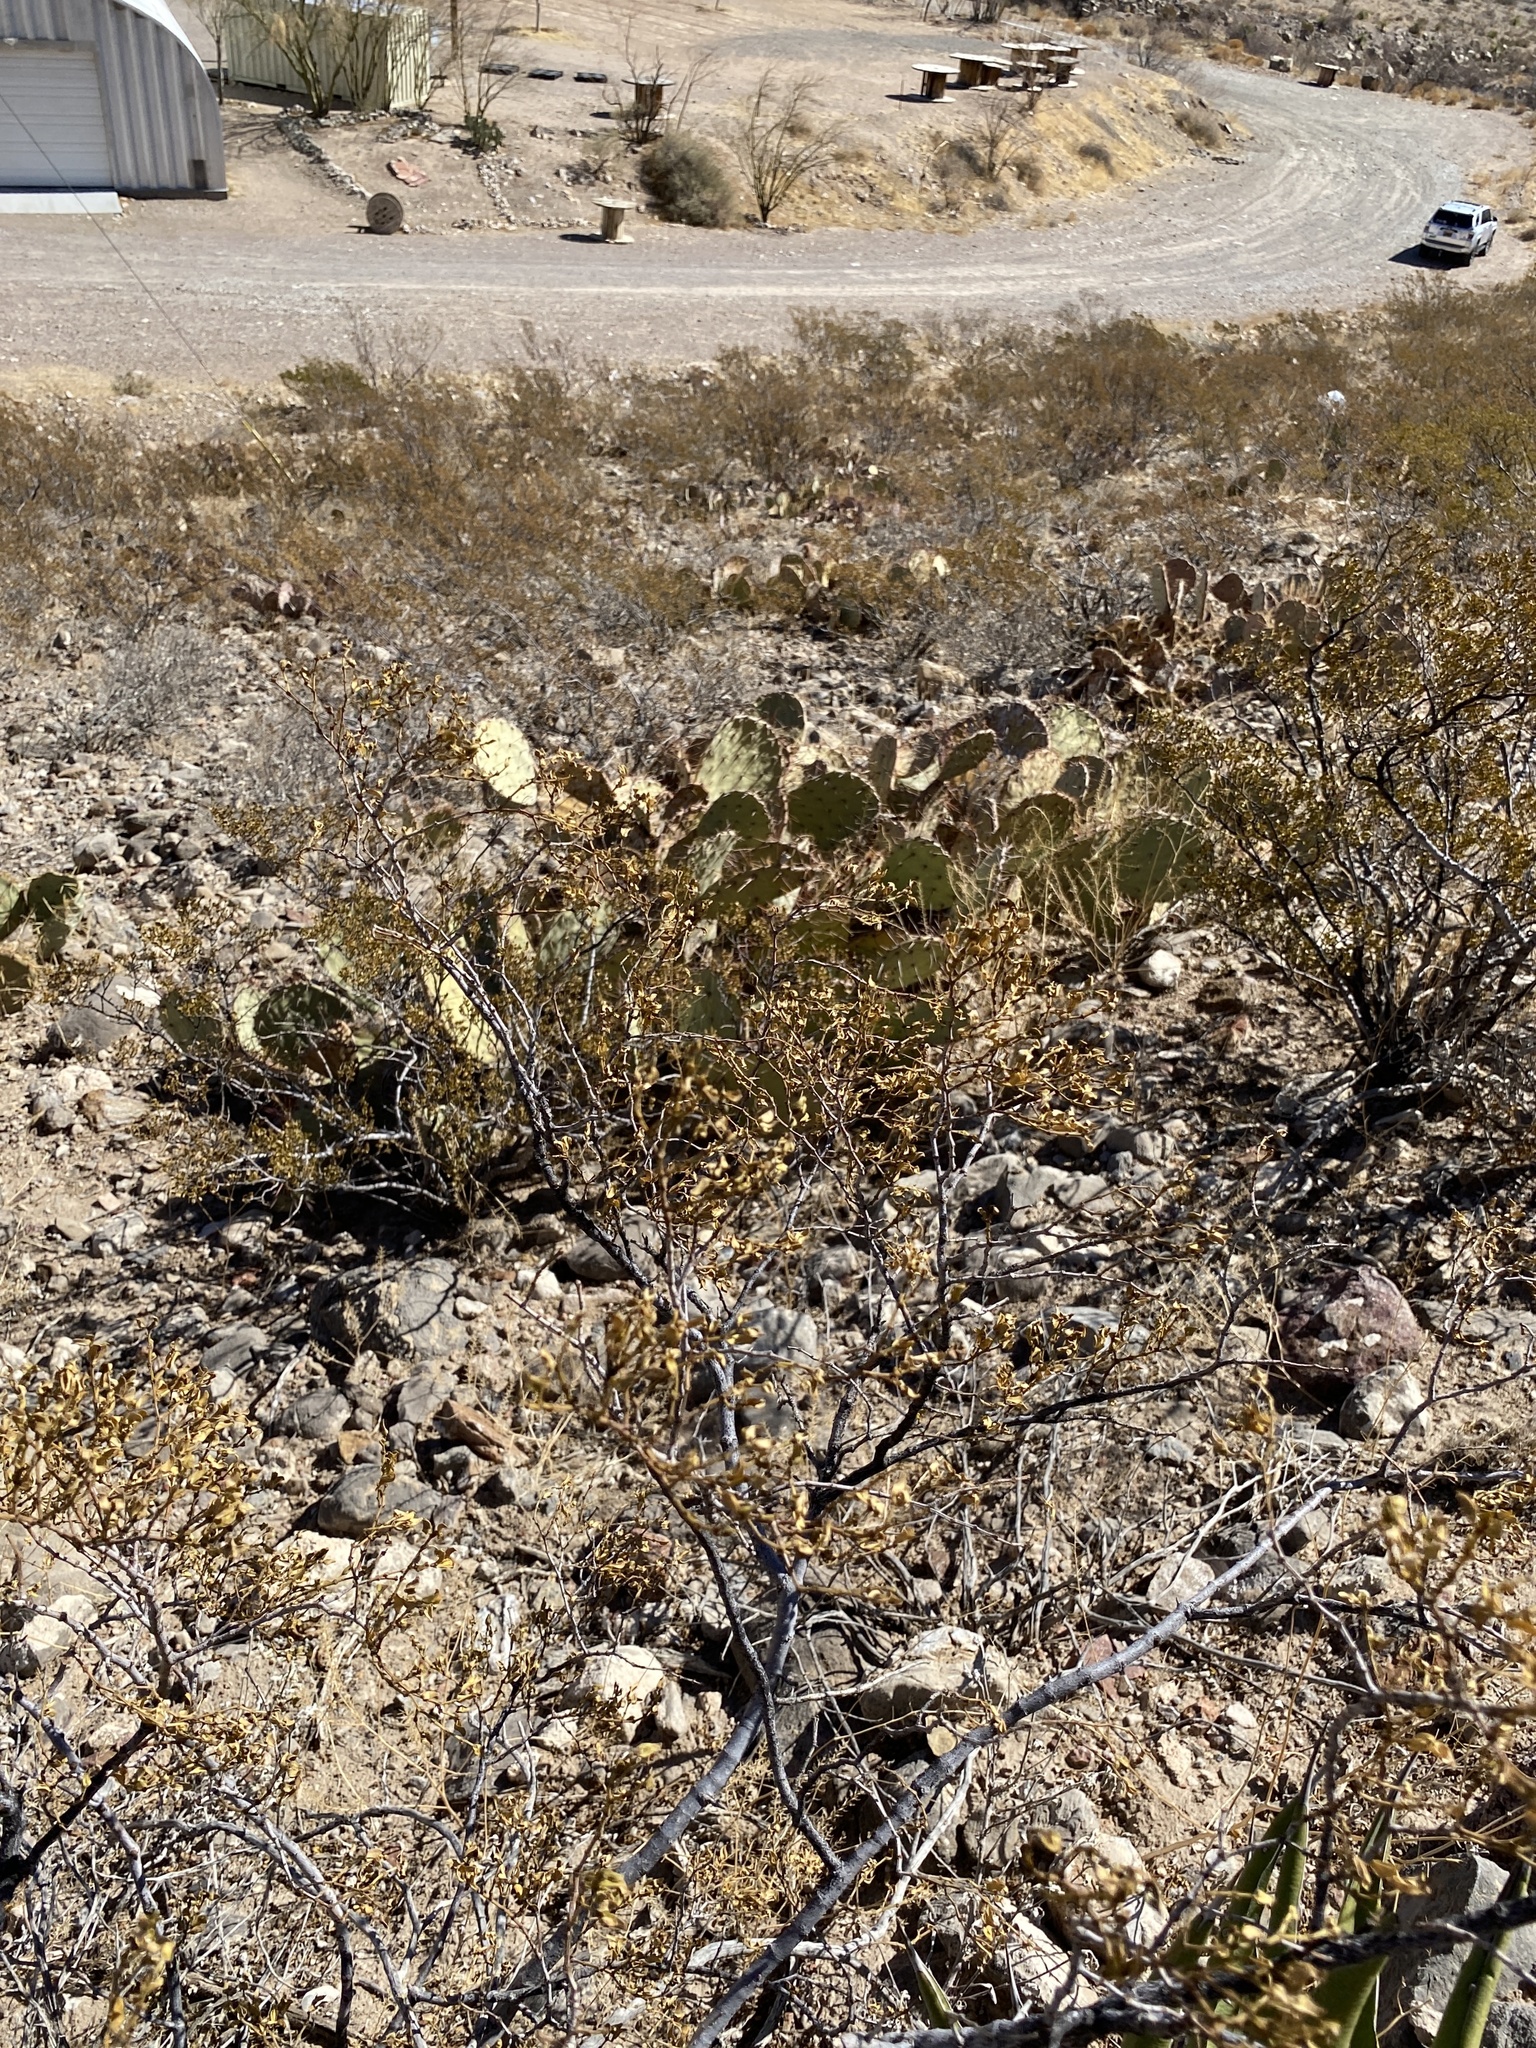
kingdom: Plantae
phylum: Tracheophyta
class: Magnoliopsida
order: Zygophyllales
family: Zygophyllaceae
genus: Larrea
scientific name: Larrea tridentata
